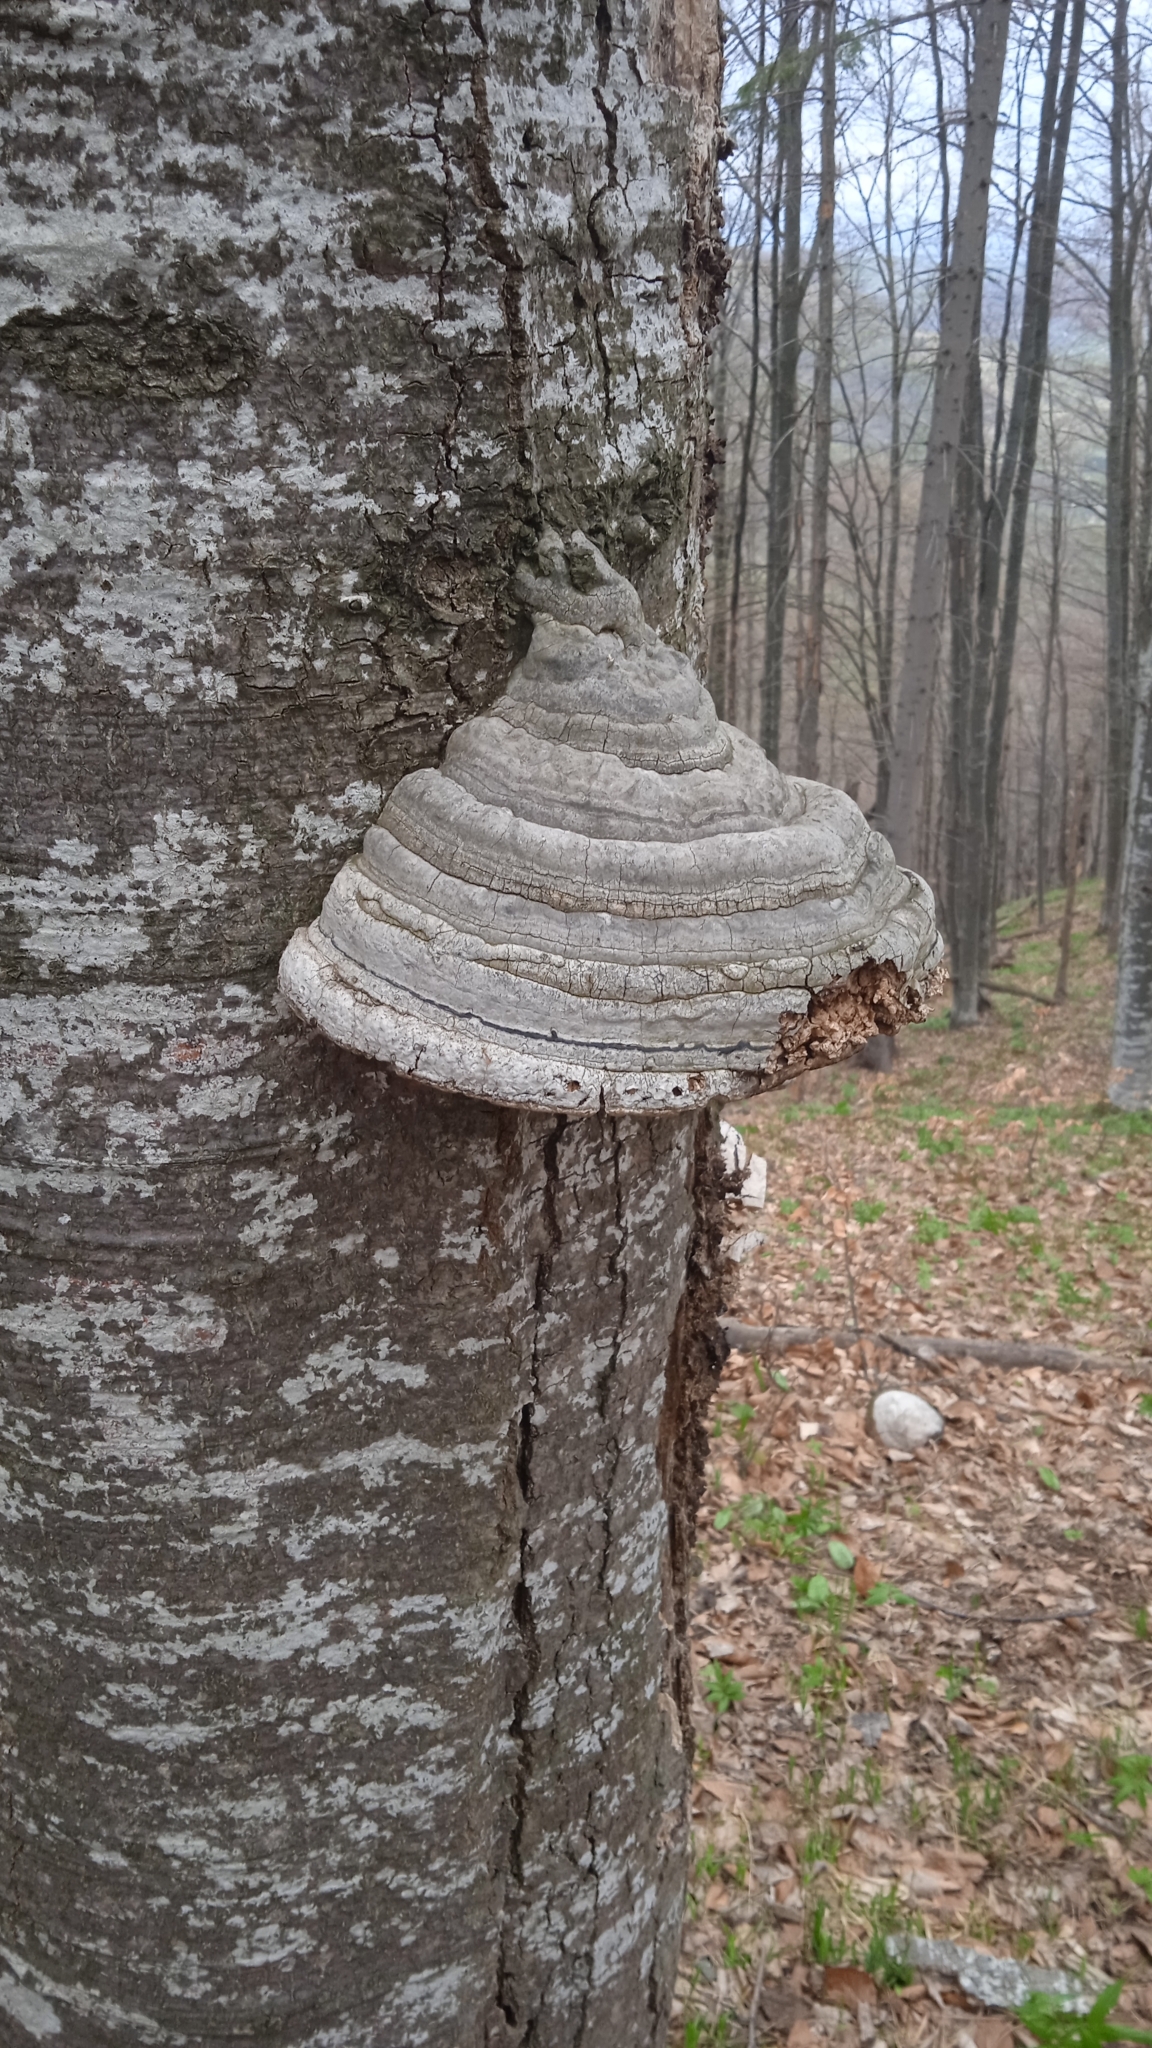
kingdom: Fungi
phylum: Basidiomycota
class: Agaricomycetes
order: Polyporales
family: Polyporaceae
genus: Fomes
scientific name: Fomes fomentarius
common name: Hoof fungus
